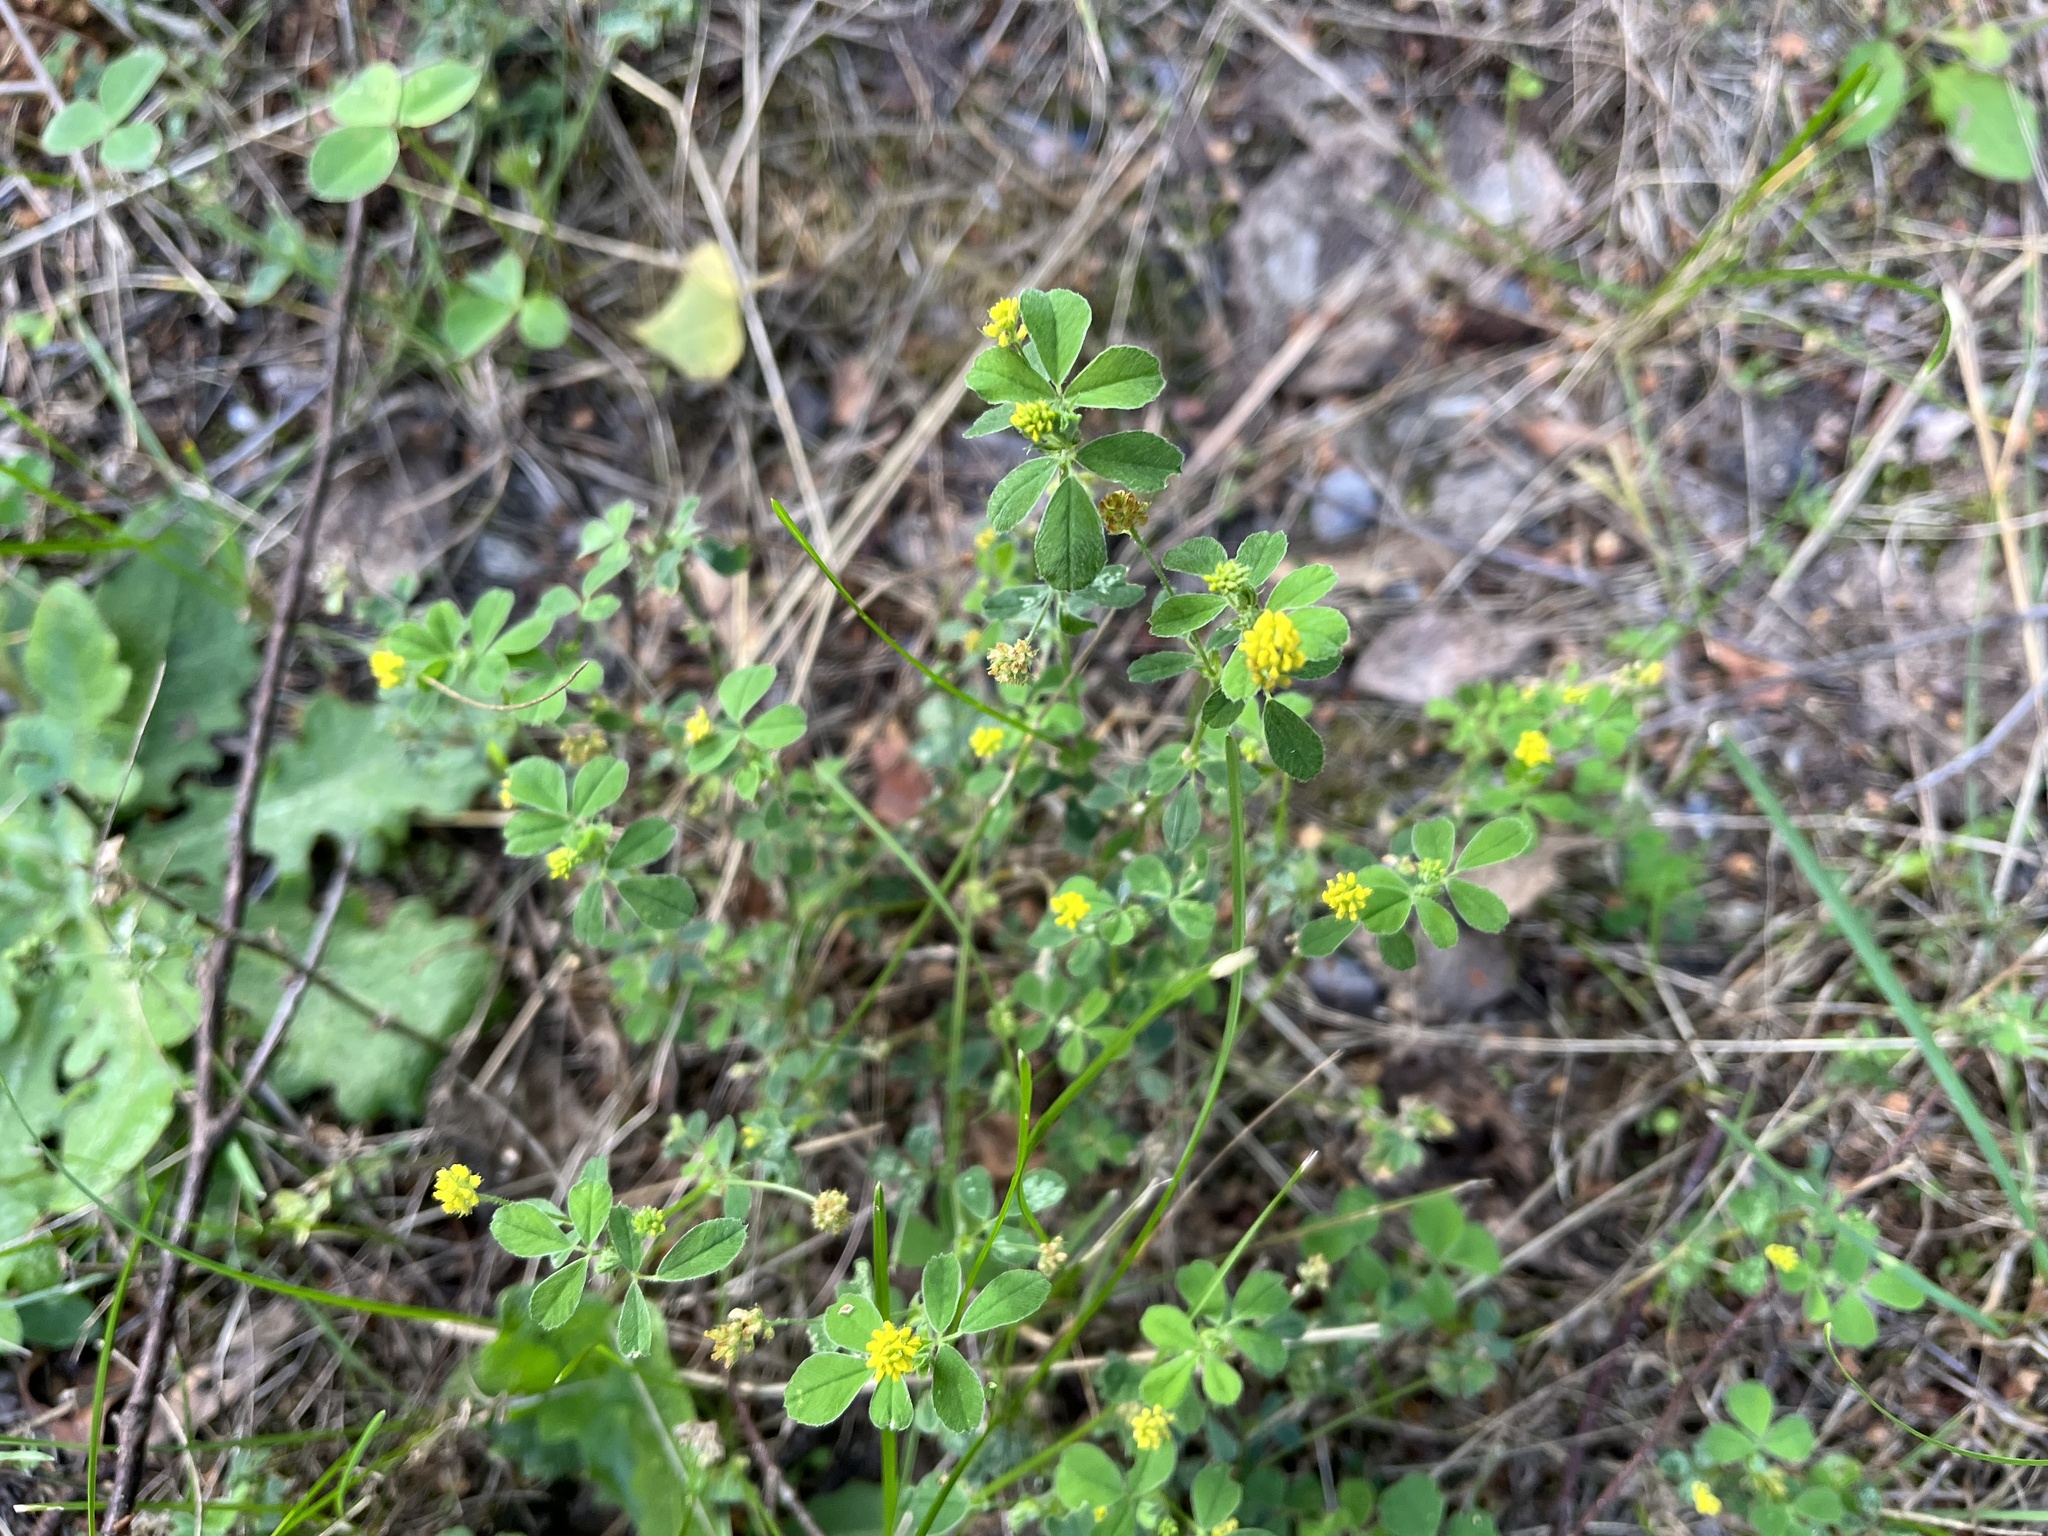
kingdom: Plantae
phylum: Tracheophyta
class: Magnoliopsida
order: Fabales
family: Fabaceae
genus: Medicago
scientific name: Medicago lupulina
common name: Black medick
